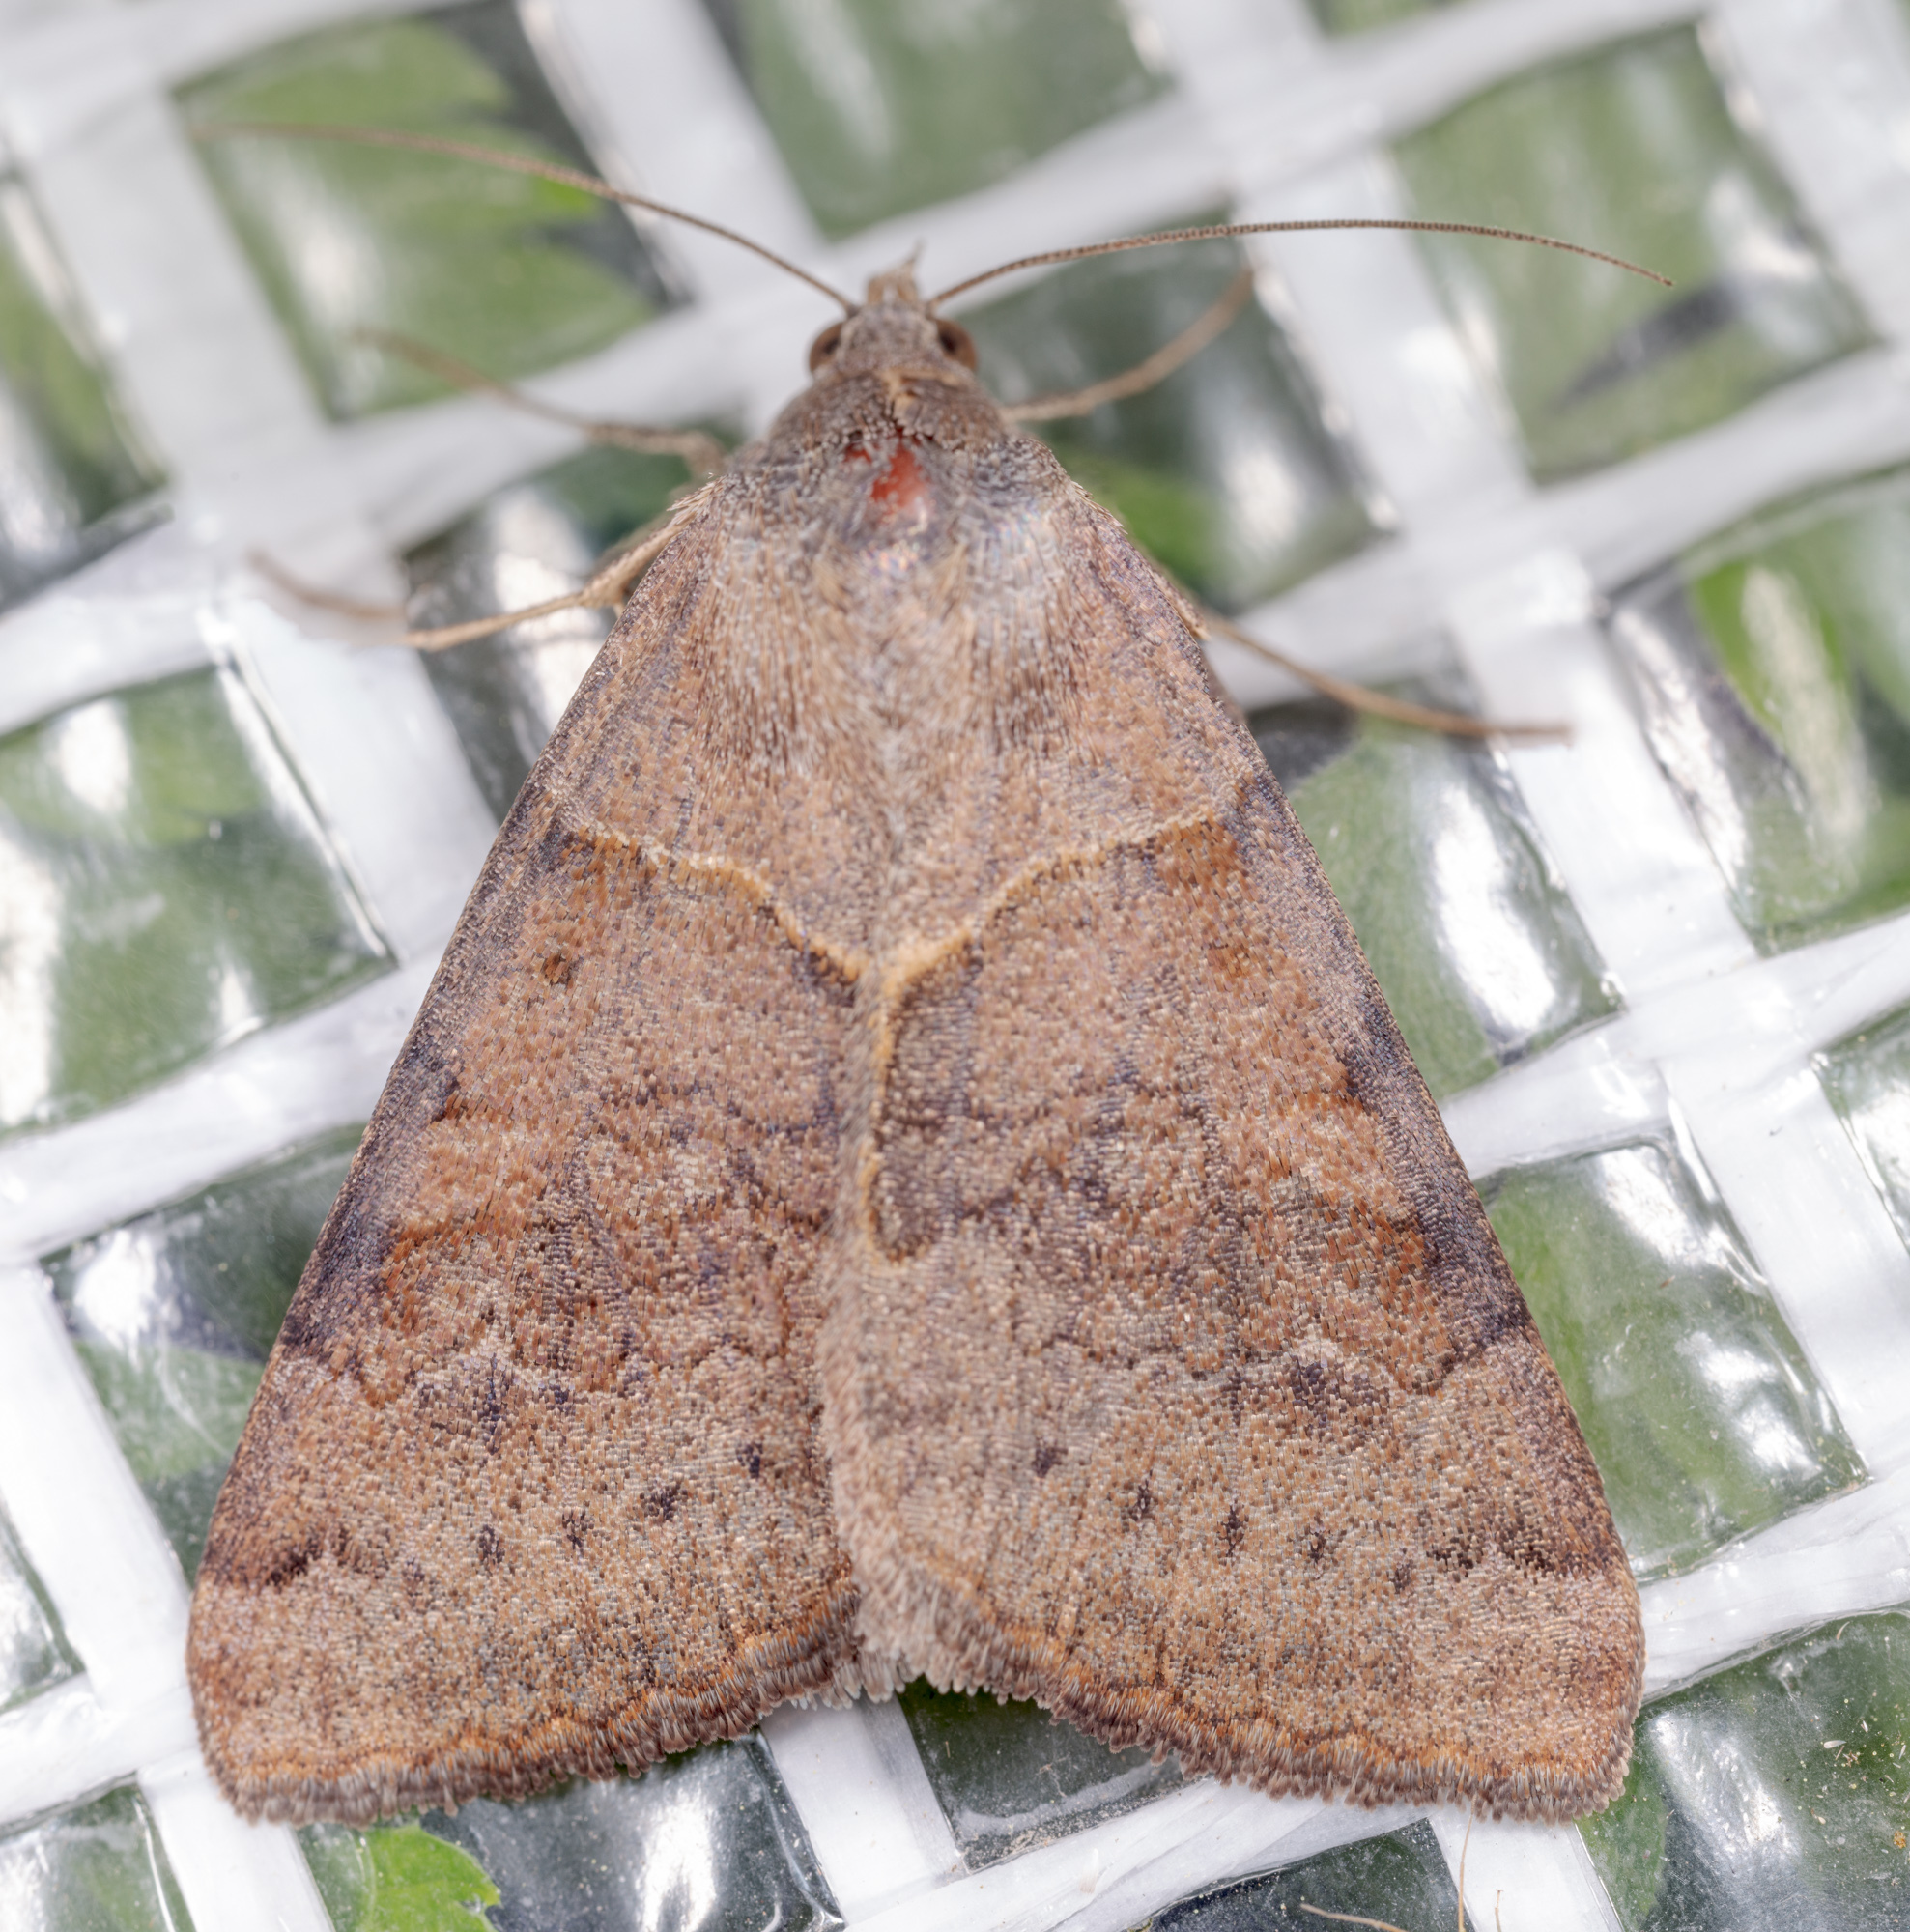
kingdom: Animalia
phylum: Arthropoda
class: Insecta
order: Lepidoptera
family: Erebidae
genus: Caenurgina
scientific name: Caenurgina erechtea
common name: Forage looper moth
